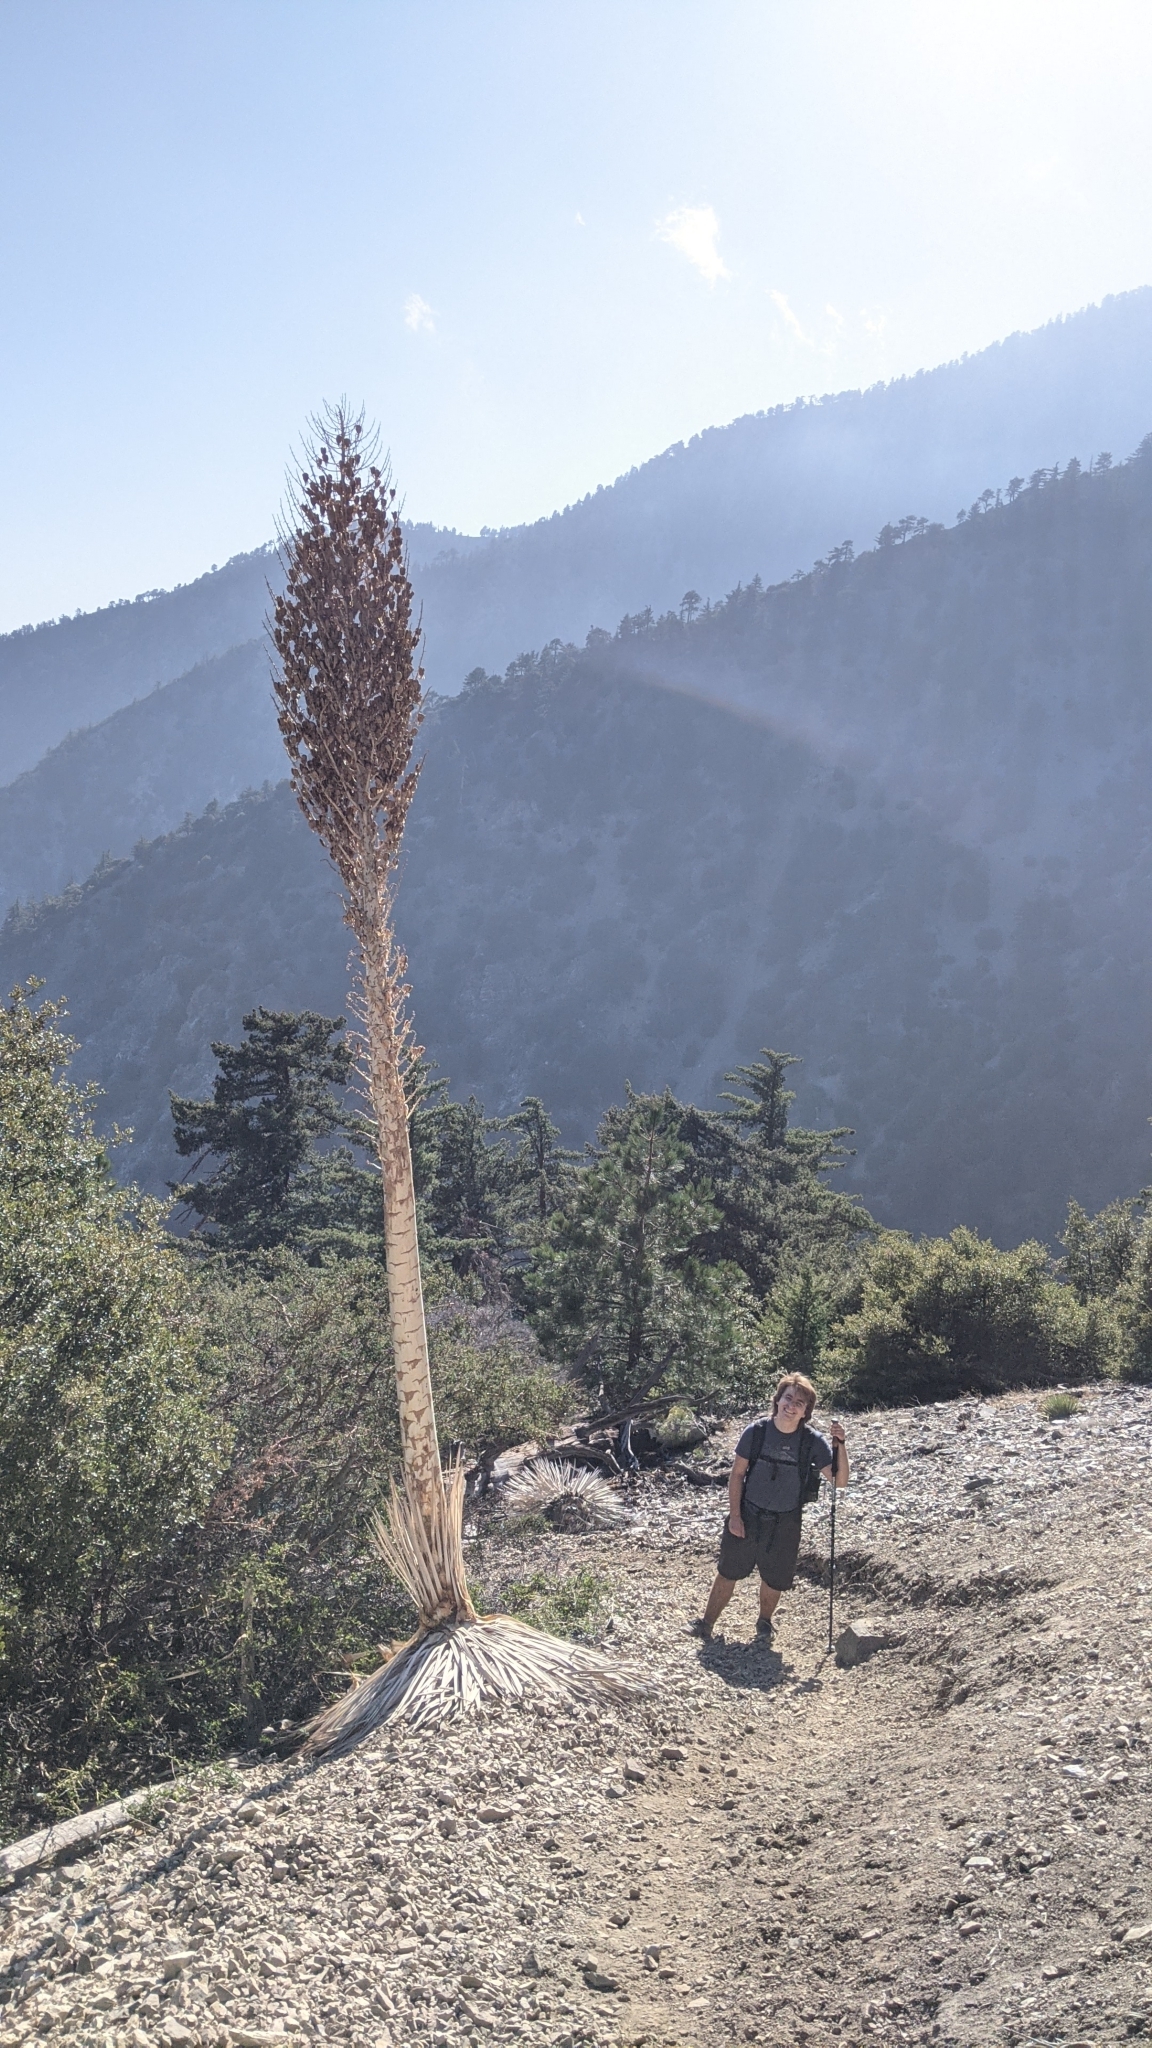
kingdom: Plantae
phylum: Tracheophyta
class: Liliopsida
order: Asparagales
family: Asparagaceae
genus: Hesperoyucca
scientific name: Hesperoyucca whipplei
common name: Our lord's-candle
